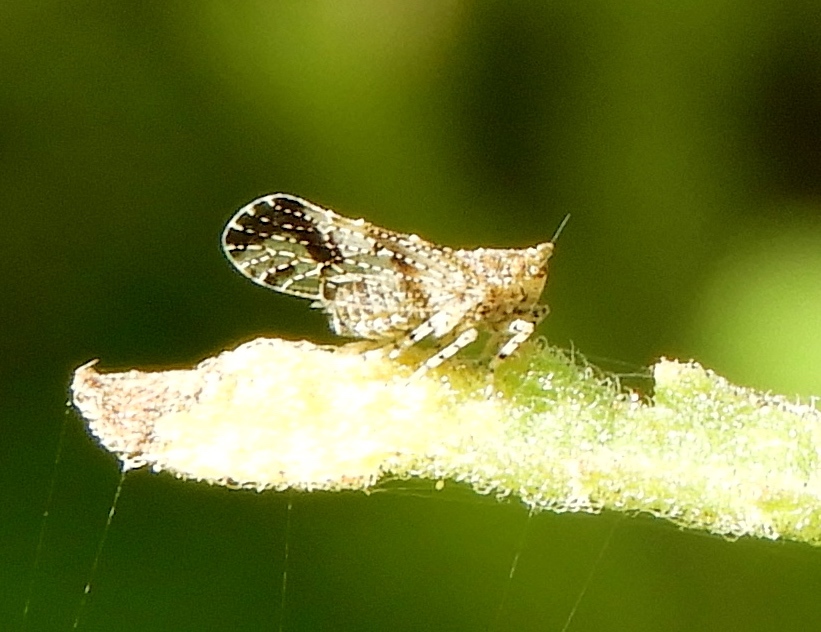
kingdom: Animalia
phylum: Arthropoda
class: Insecta
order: Hemiptera
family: Delphacidae
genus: Stobaera
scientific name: Stobaera
